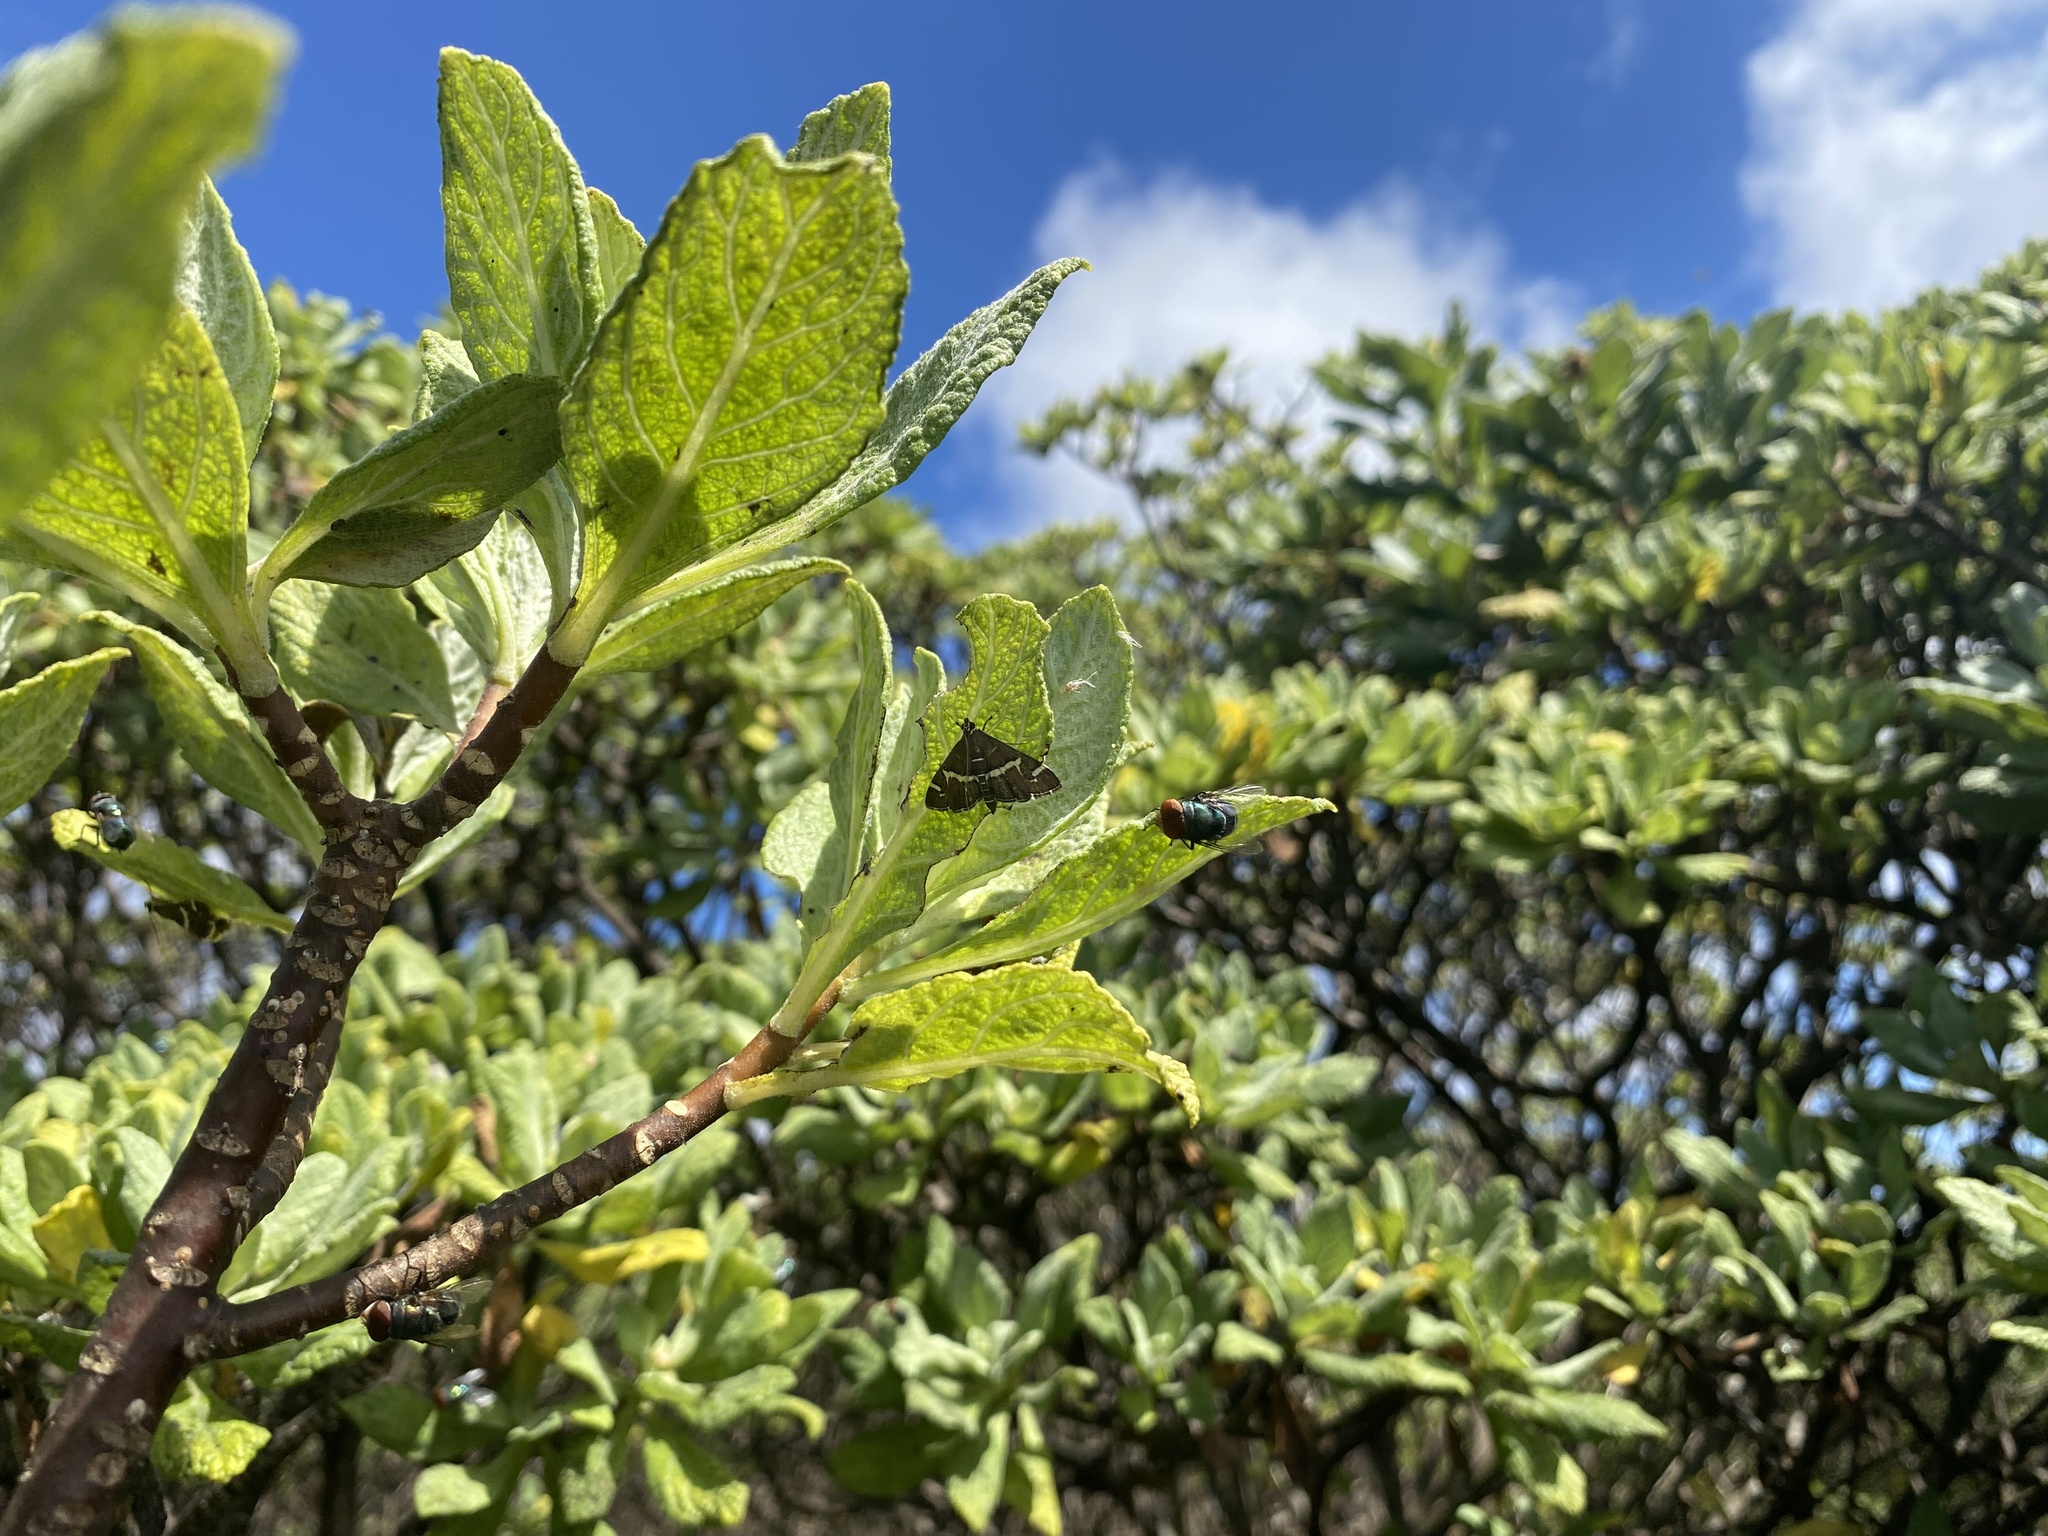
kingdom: Animalia
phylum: Arthropoda
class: Insecta
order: Lepidoptera
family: Crambidae
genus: Spoladea
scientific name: Spoladea recurvalis
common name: Beet webworm moth
